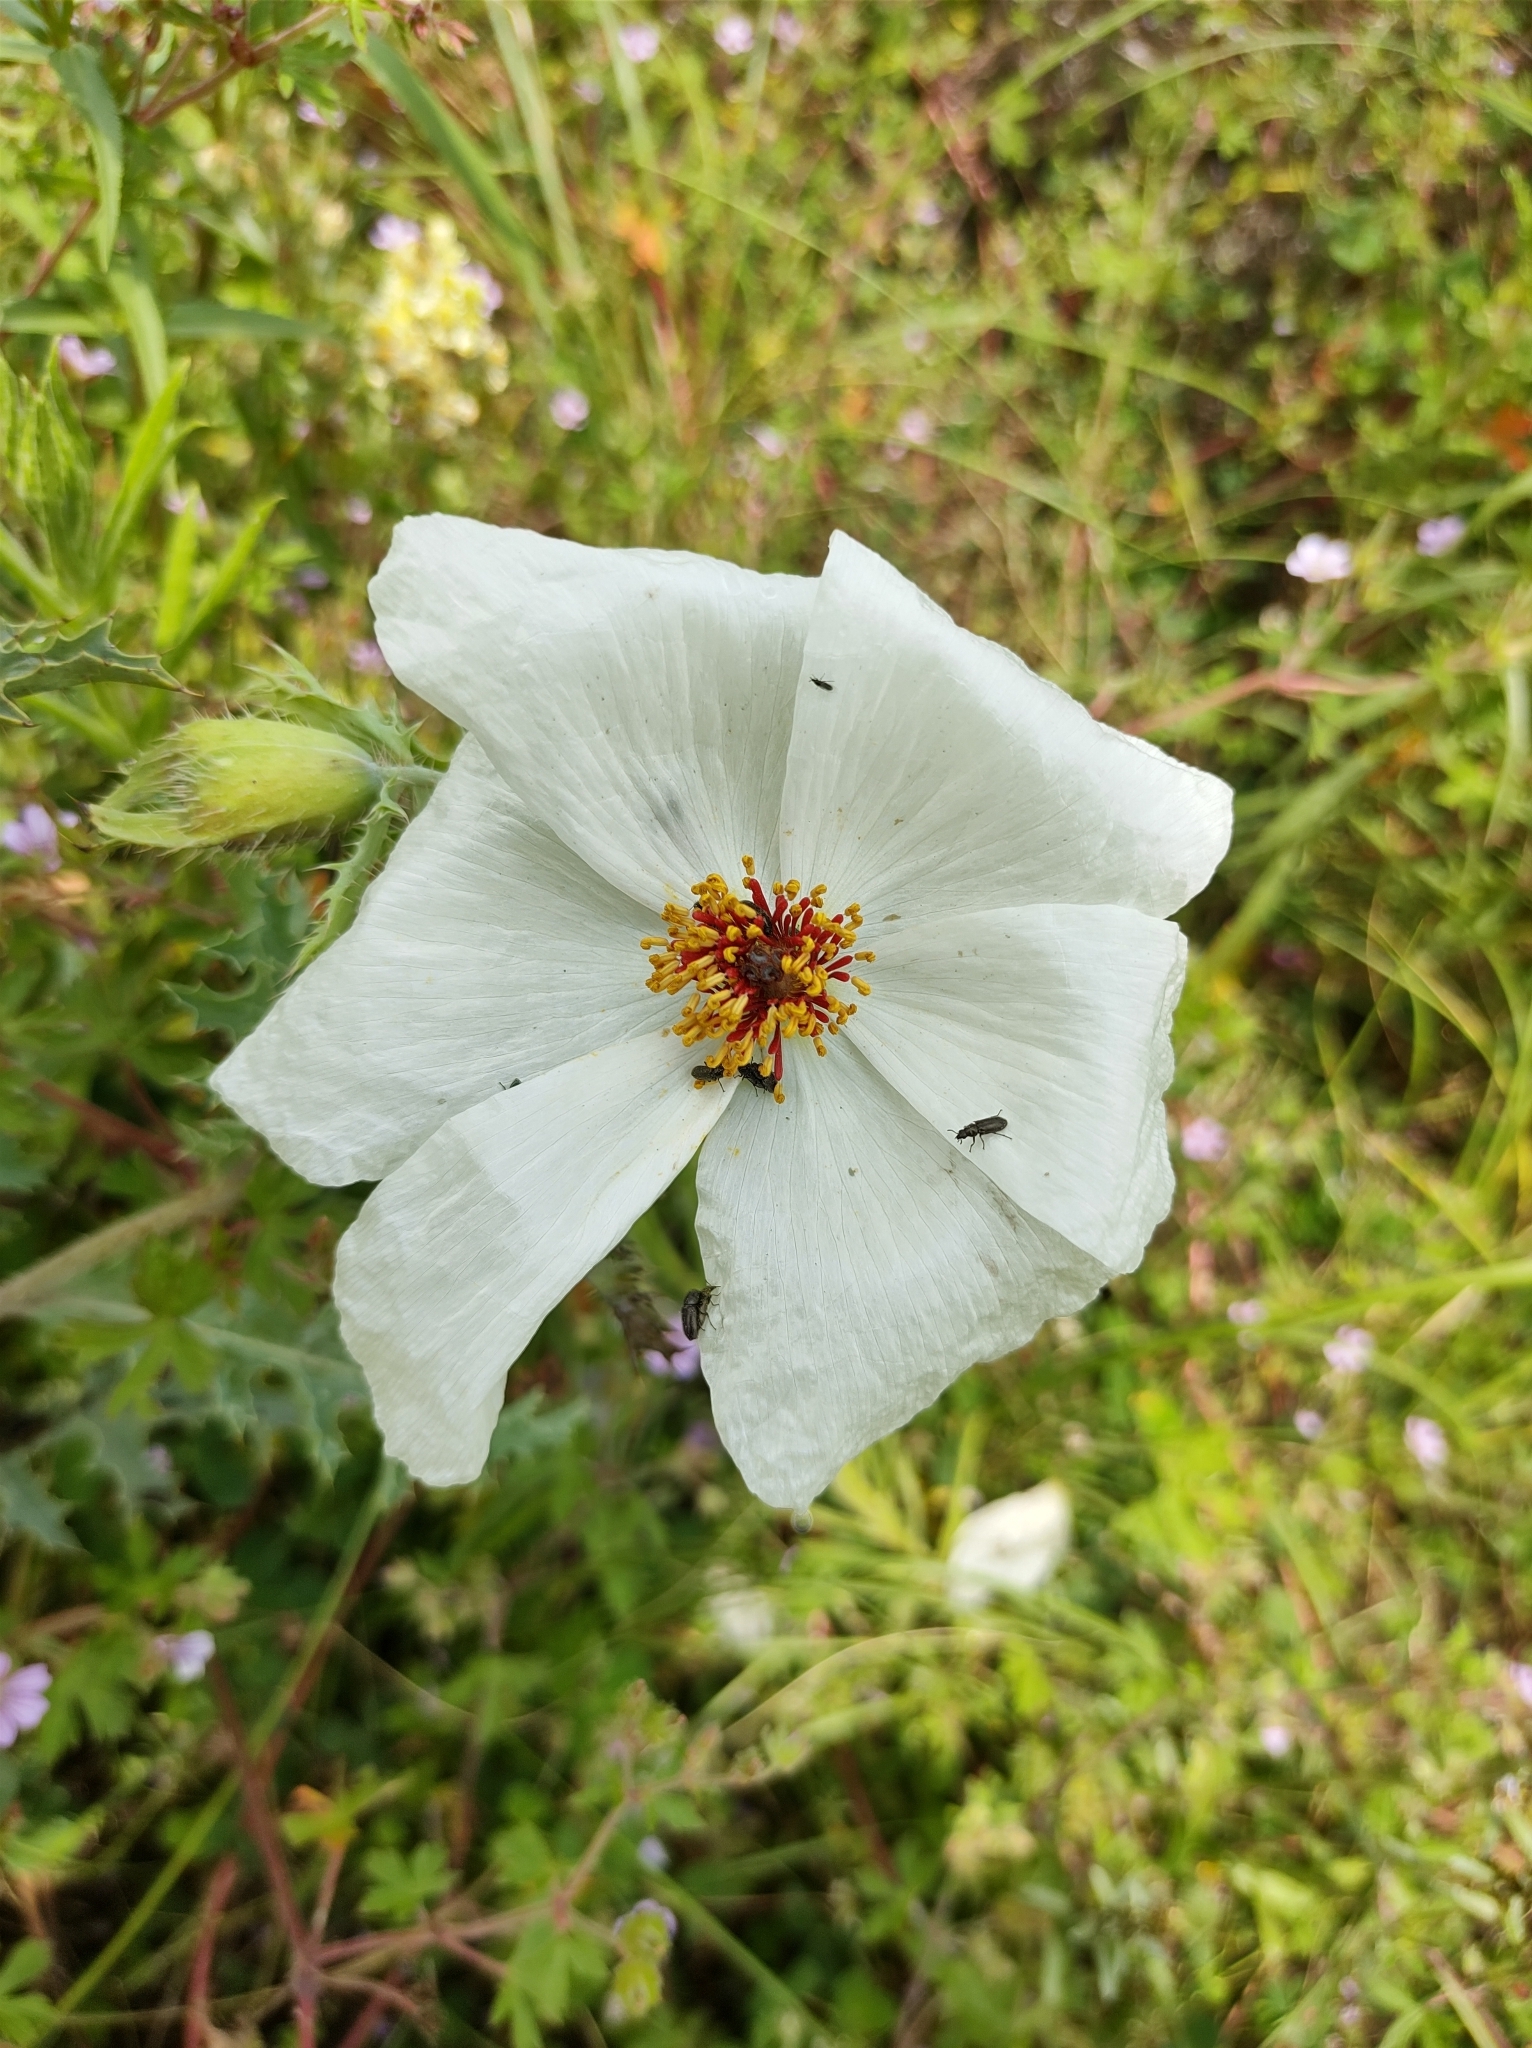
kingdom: Plantae
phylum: Tracheophyta
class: Magnoliopsida
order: Ranunculales
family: Papaveraceae
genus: Argemone
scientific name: Argemone platyceras
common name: Crested-poppy
